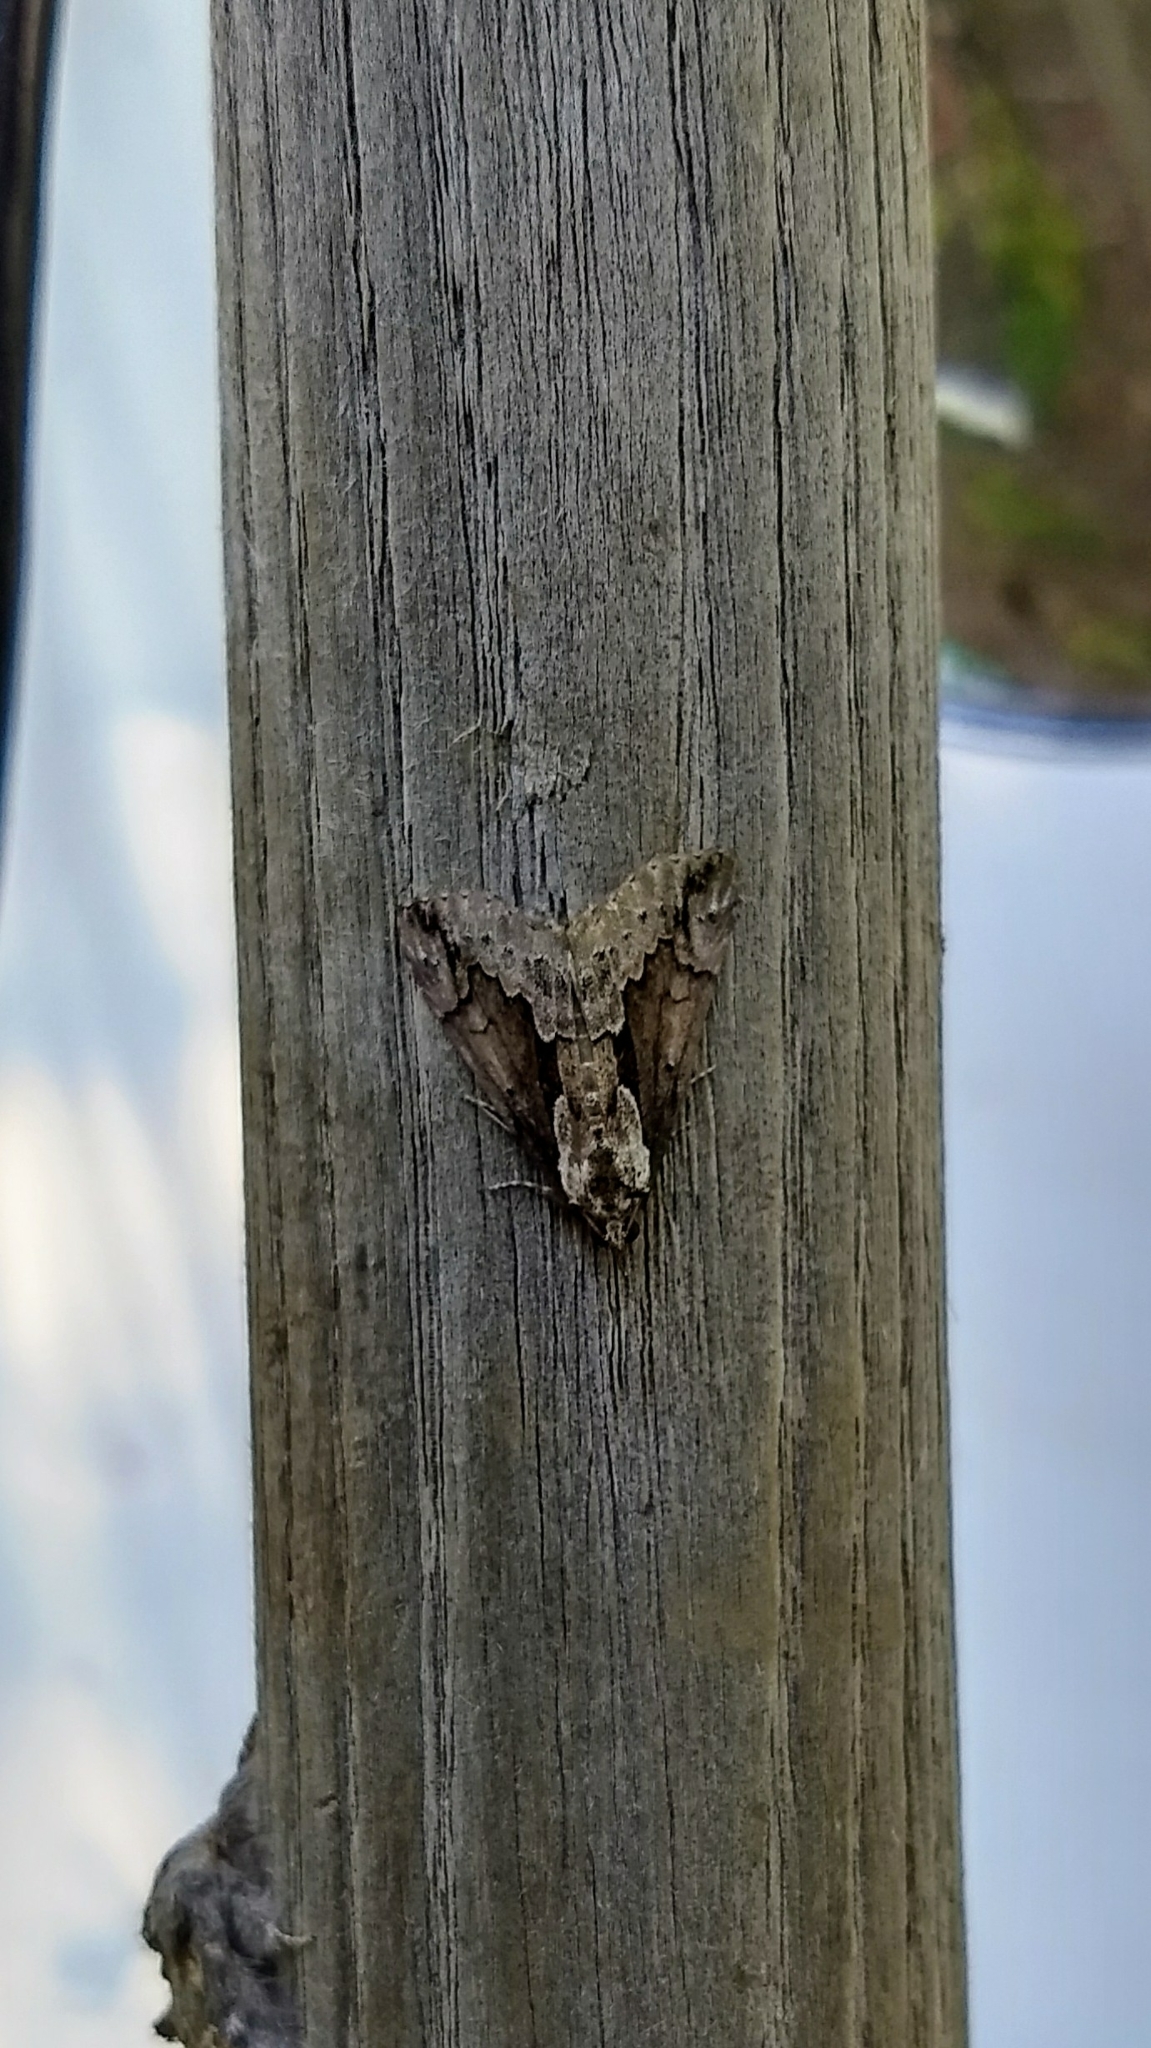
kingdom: Animalia
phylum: Arthropoda
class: Insecta
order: Lepidoptera
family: Erebidae
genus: Hypena
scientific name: Hypena baltimoralis
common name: Baltimore snout
